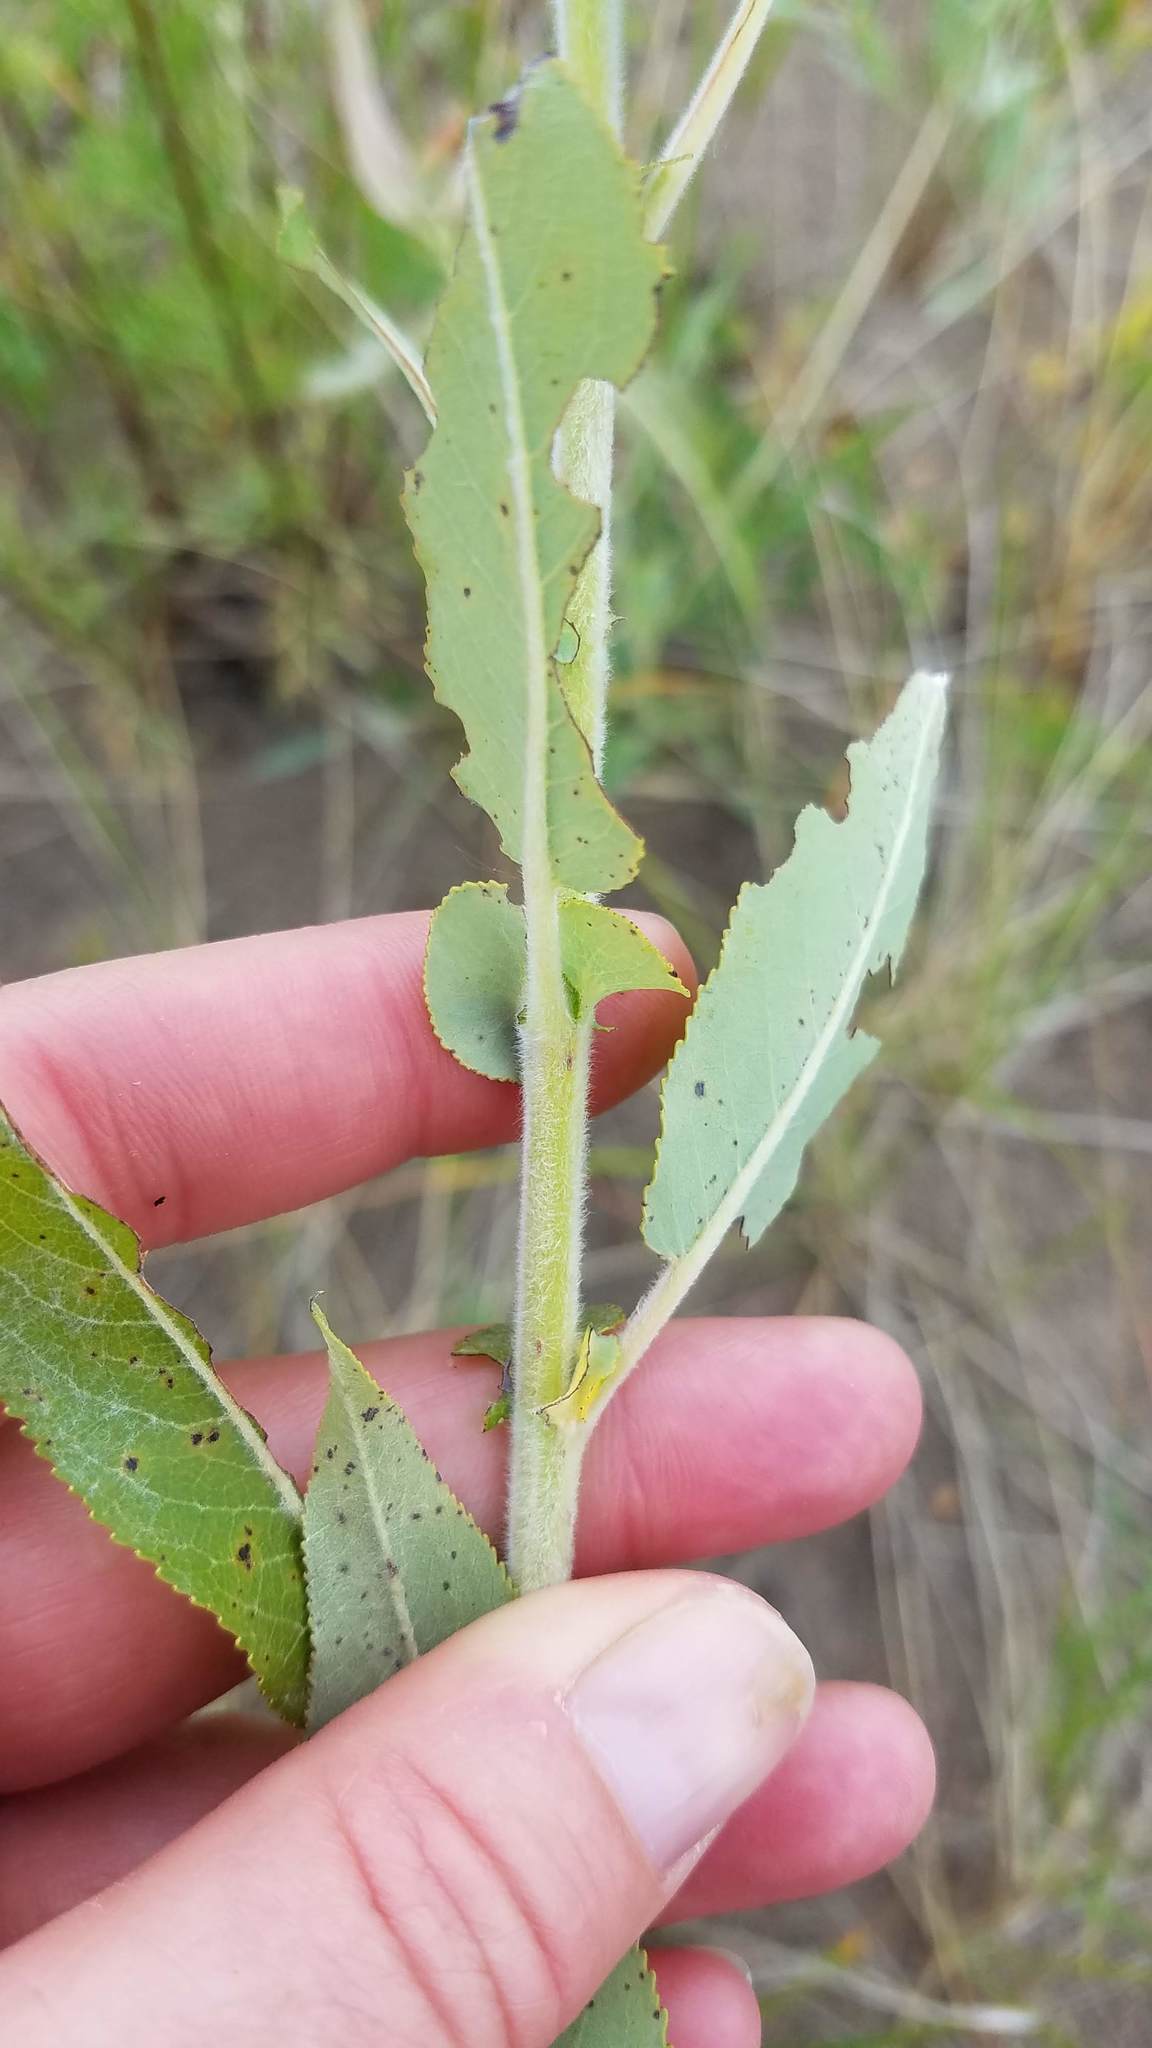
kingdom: Plantae
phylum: Tracheophyta
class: Magnoliopsida
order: Malpighiales
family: Salicaceae
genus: Salix
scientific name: Salix eriocephala
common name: Heart-leaved willow
